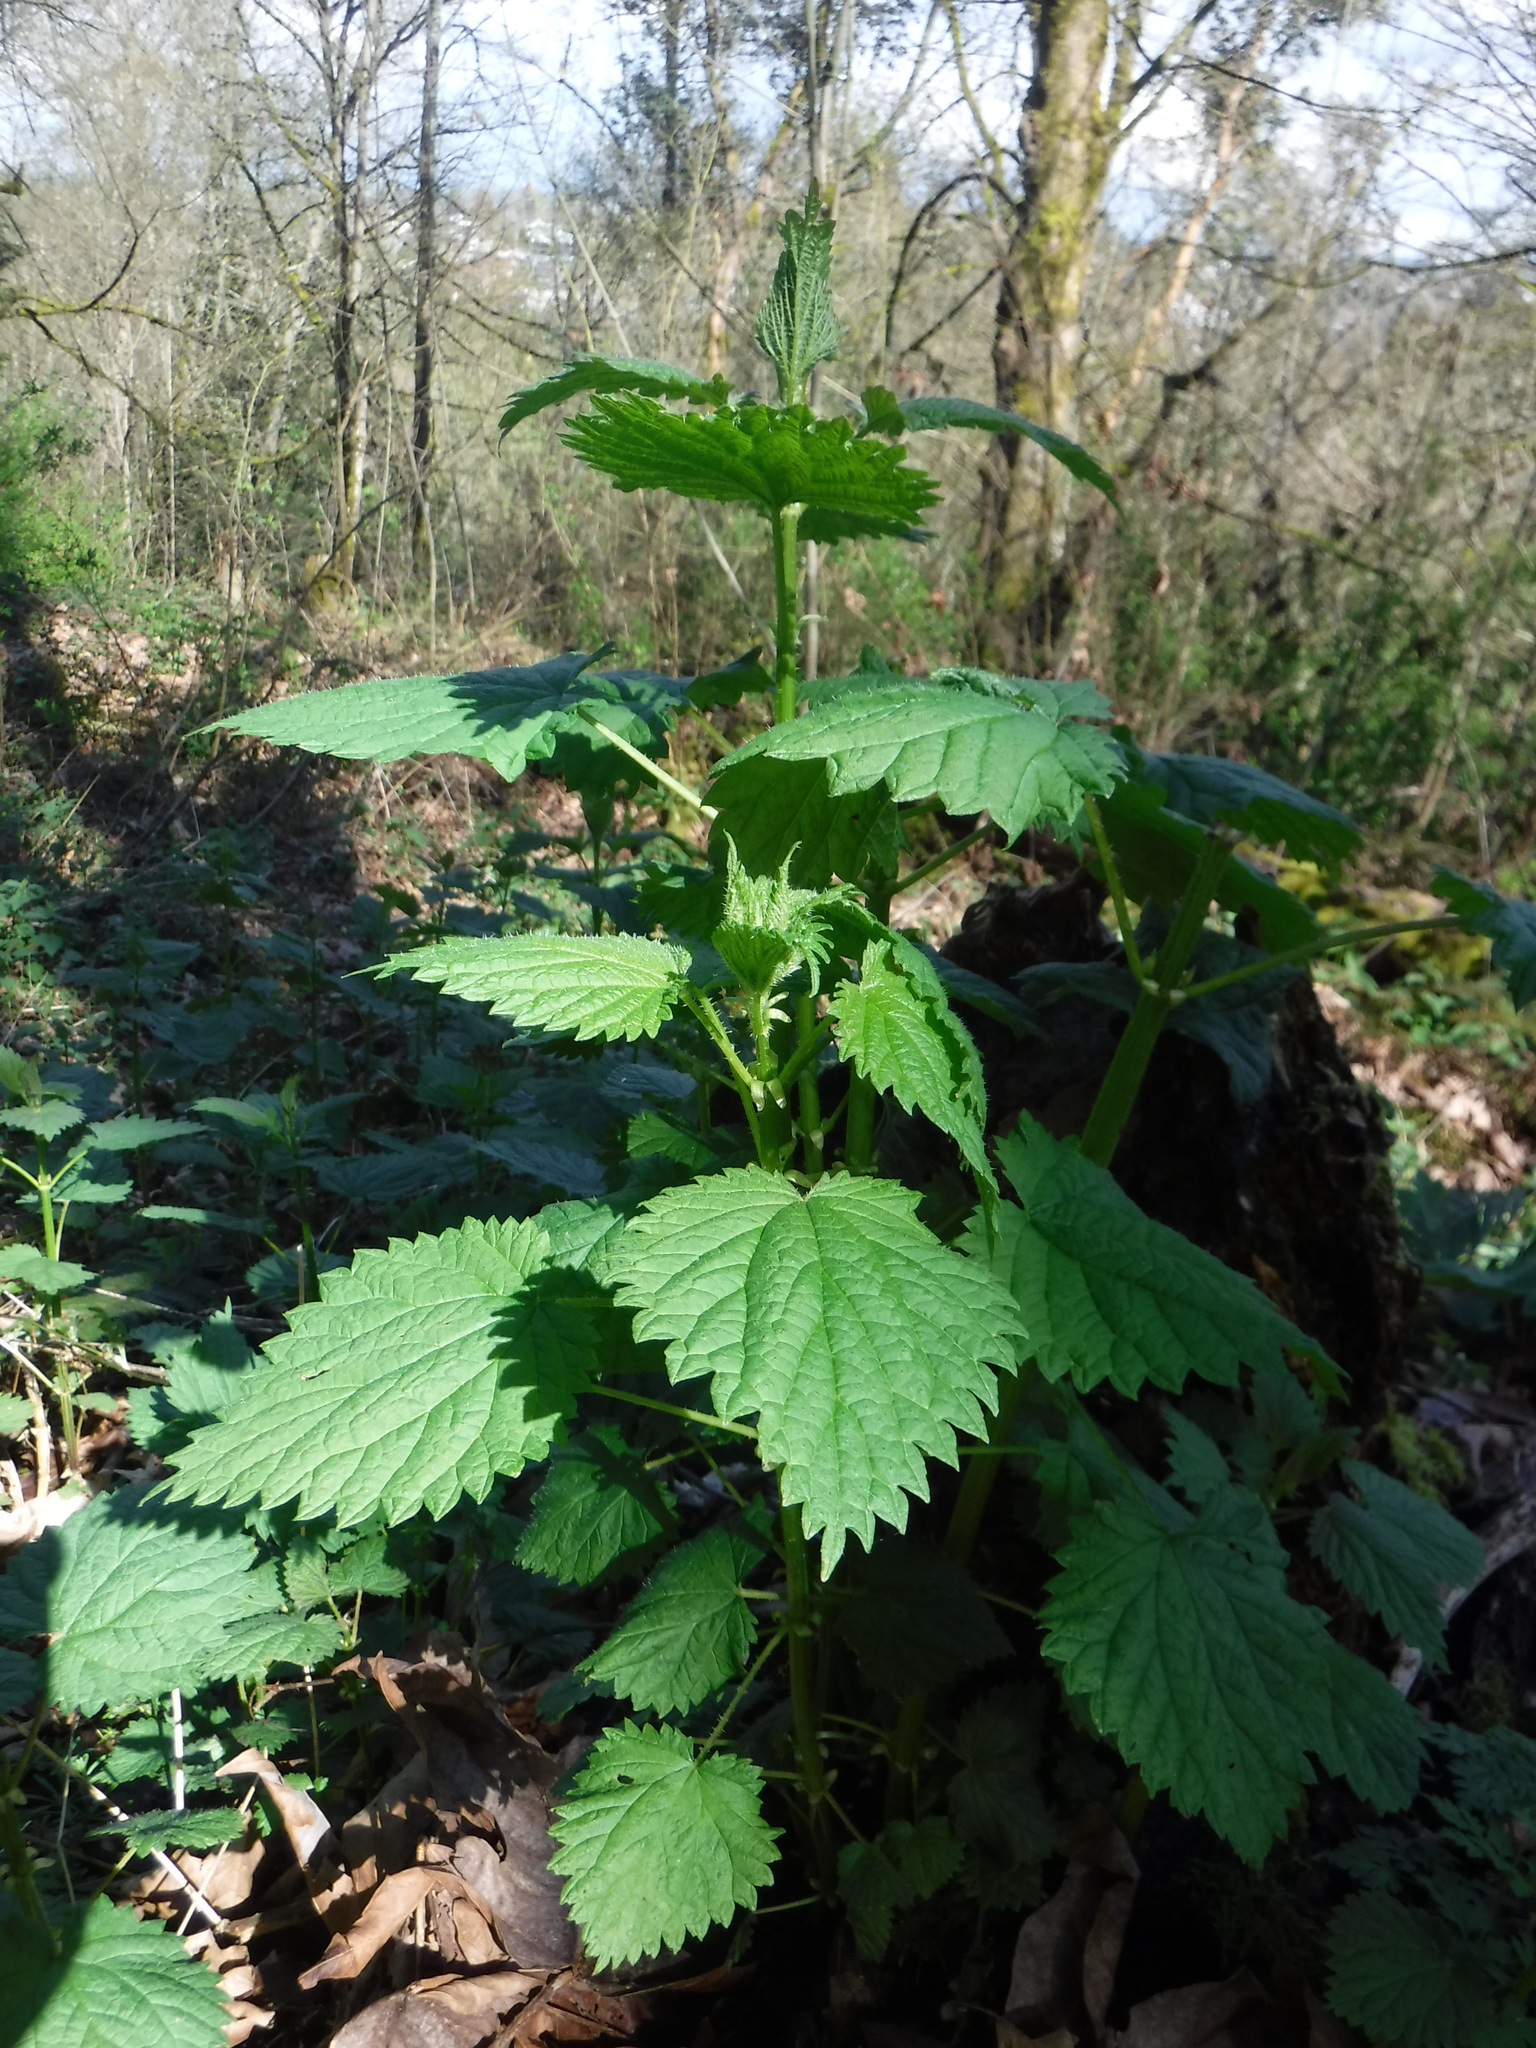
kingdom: Plantae
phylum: Tracheophyta
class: Magnoliopsida
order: Rosales
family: Urticaceae
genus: Urtica
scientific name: Urtica dioica
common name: Common nettle
